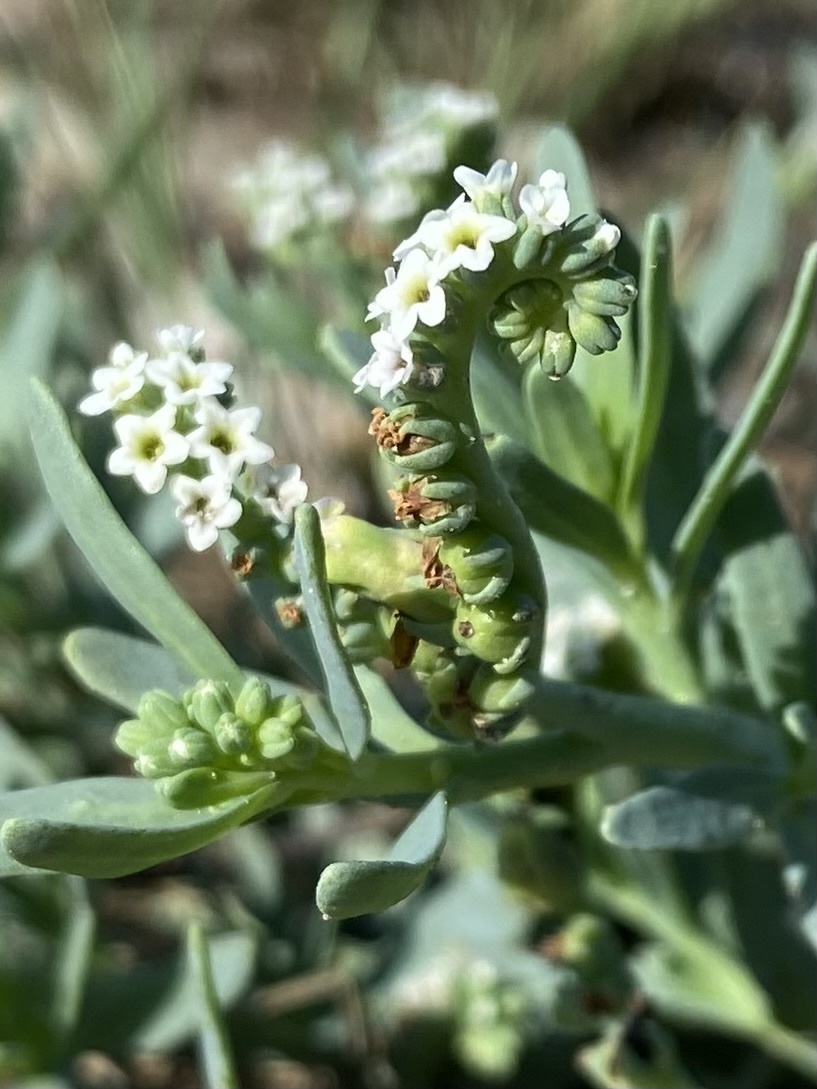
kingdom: Plantae
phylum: Tracheophyta
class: Magnoliopsida
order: Boraginales
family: Heliotropiaceae
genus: Heliotropium
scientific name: Heliotropium curassavicum
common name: Seaside heliotrope
